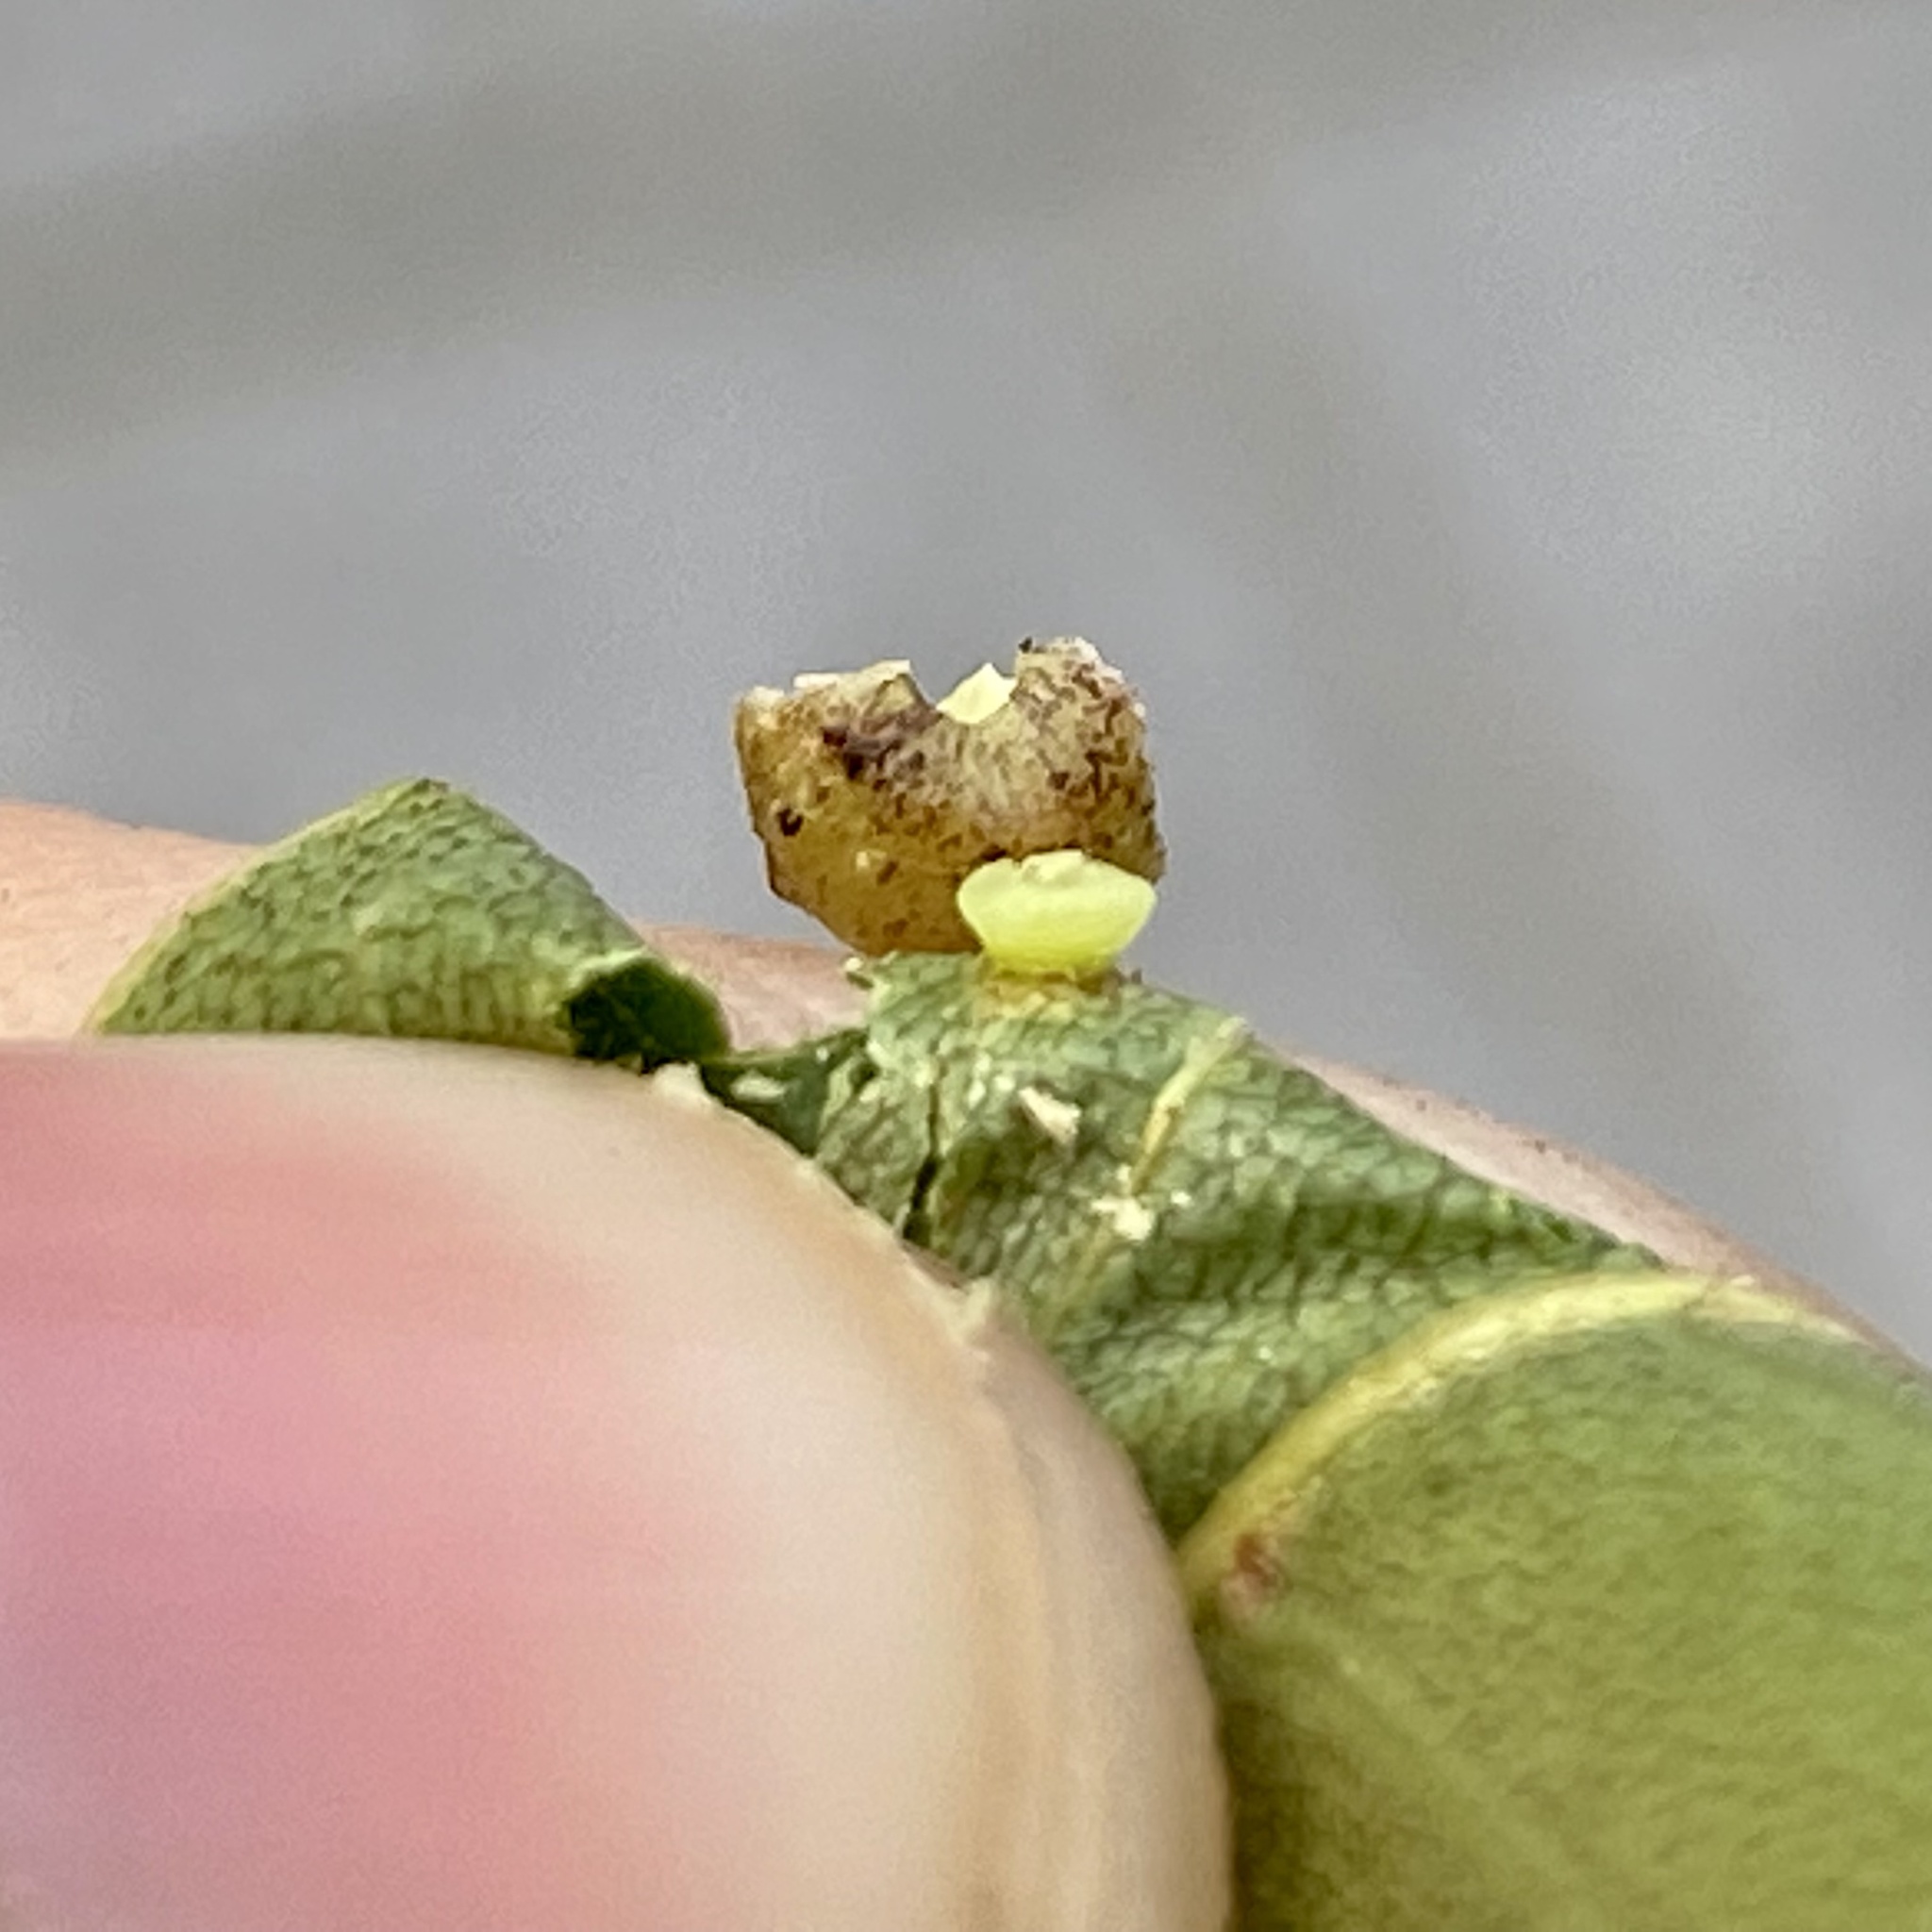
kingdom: Animalia
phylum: Arthropoda
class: Insecta
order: Diptera
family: Cecidomyiidae
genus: Caryomyia
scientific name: Caryomyia tuberculata
